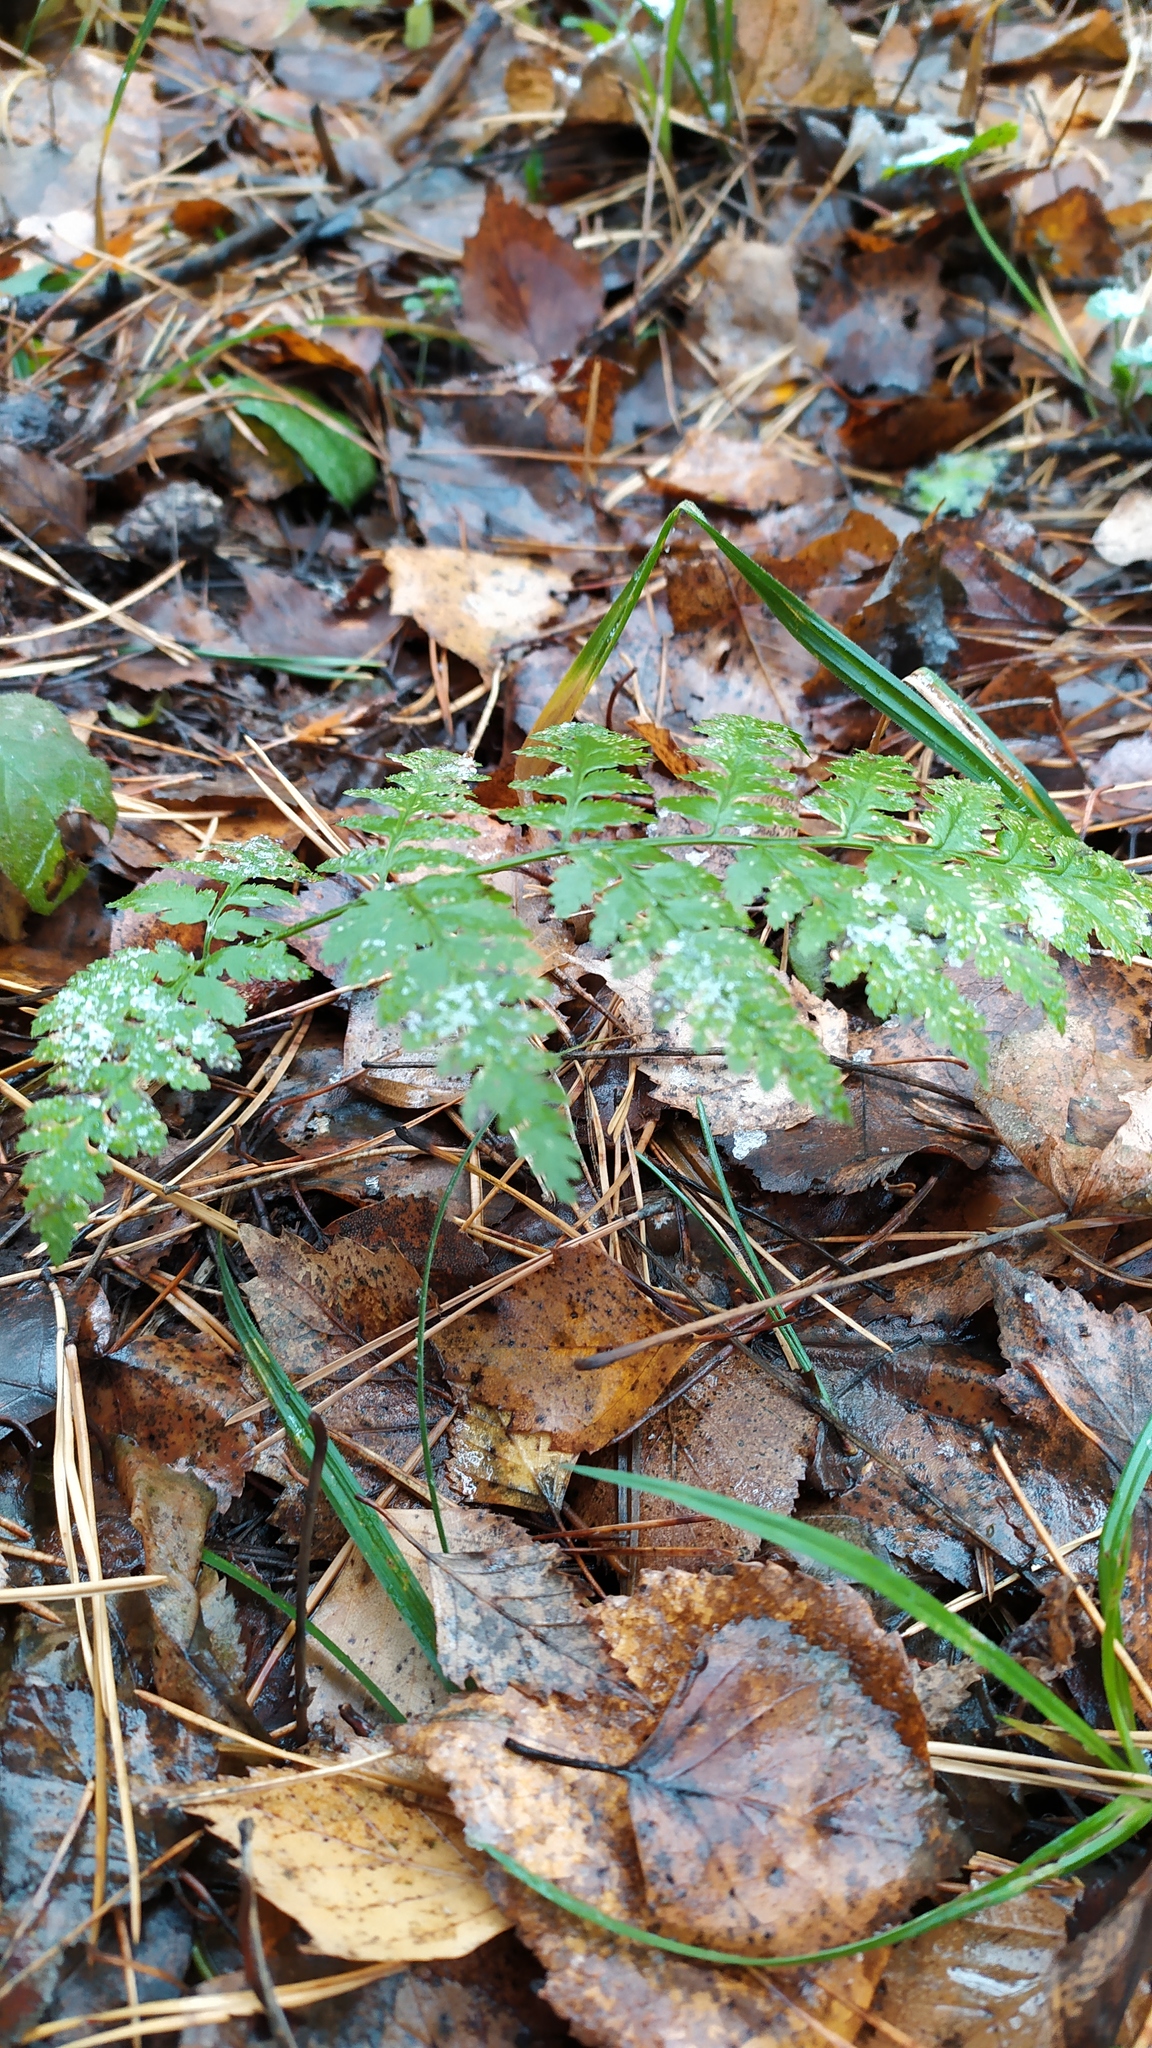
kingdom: Plantae
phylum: Tracheophyta
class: Polypodiopsida
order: Polypodiales
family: Dryopteridaceae
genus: Dryopteris
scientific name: Dryopteris carthusiana
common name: Narrow buckler-fern
